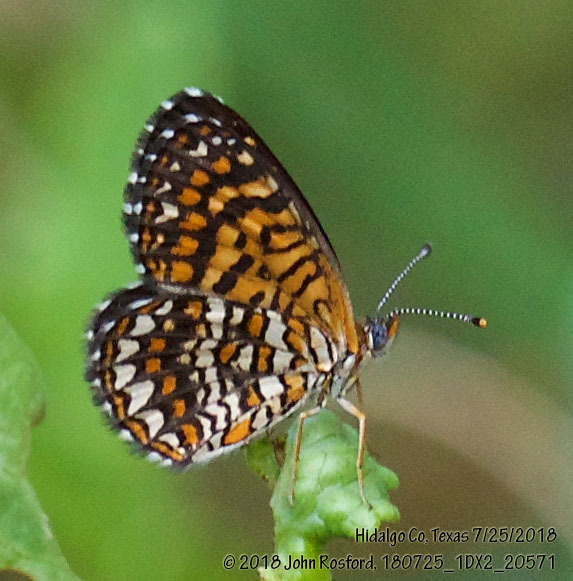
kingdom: Animalia
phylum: Arthropoda
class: Insecta
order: Lepidoptera
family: Nymphalidae
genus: Texola
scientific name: Texola elada
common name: Elada checkerspot
